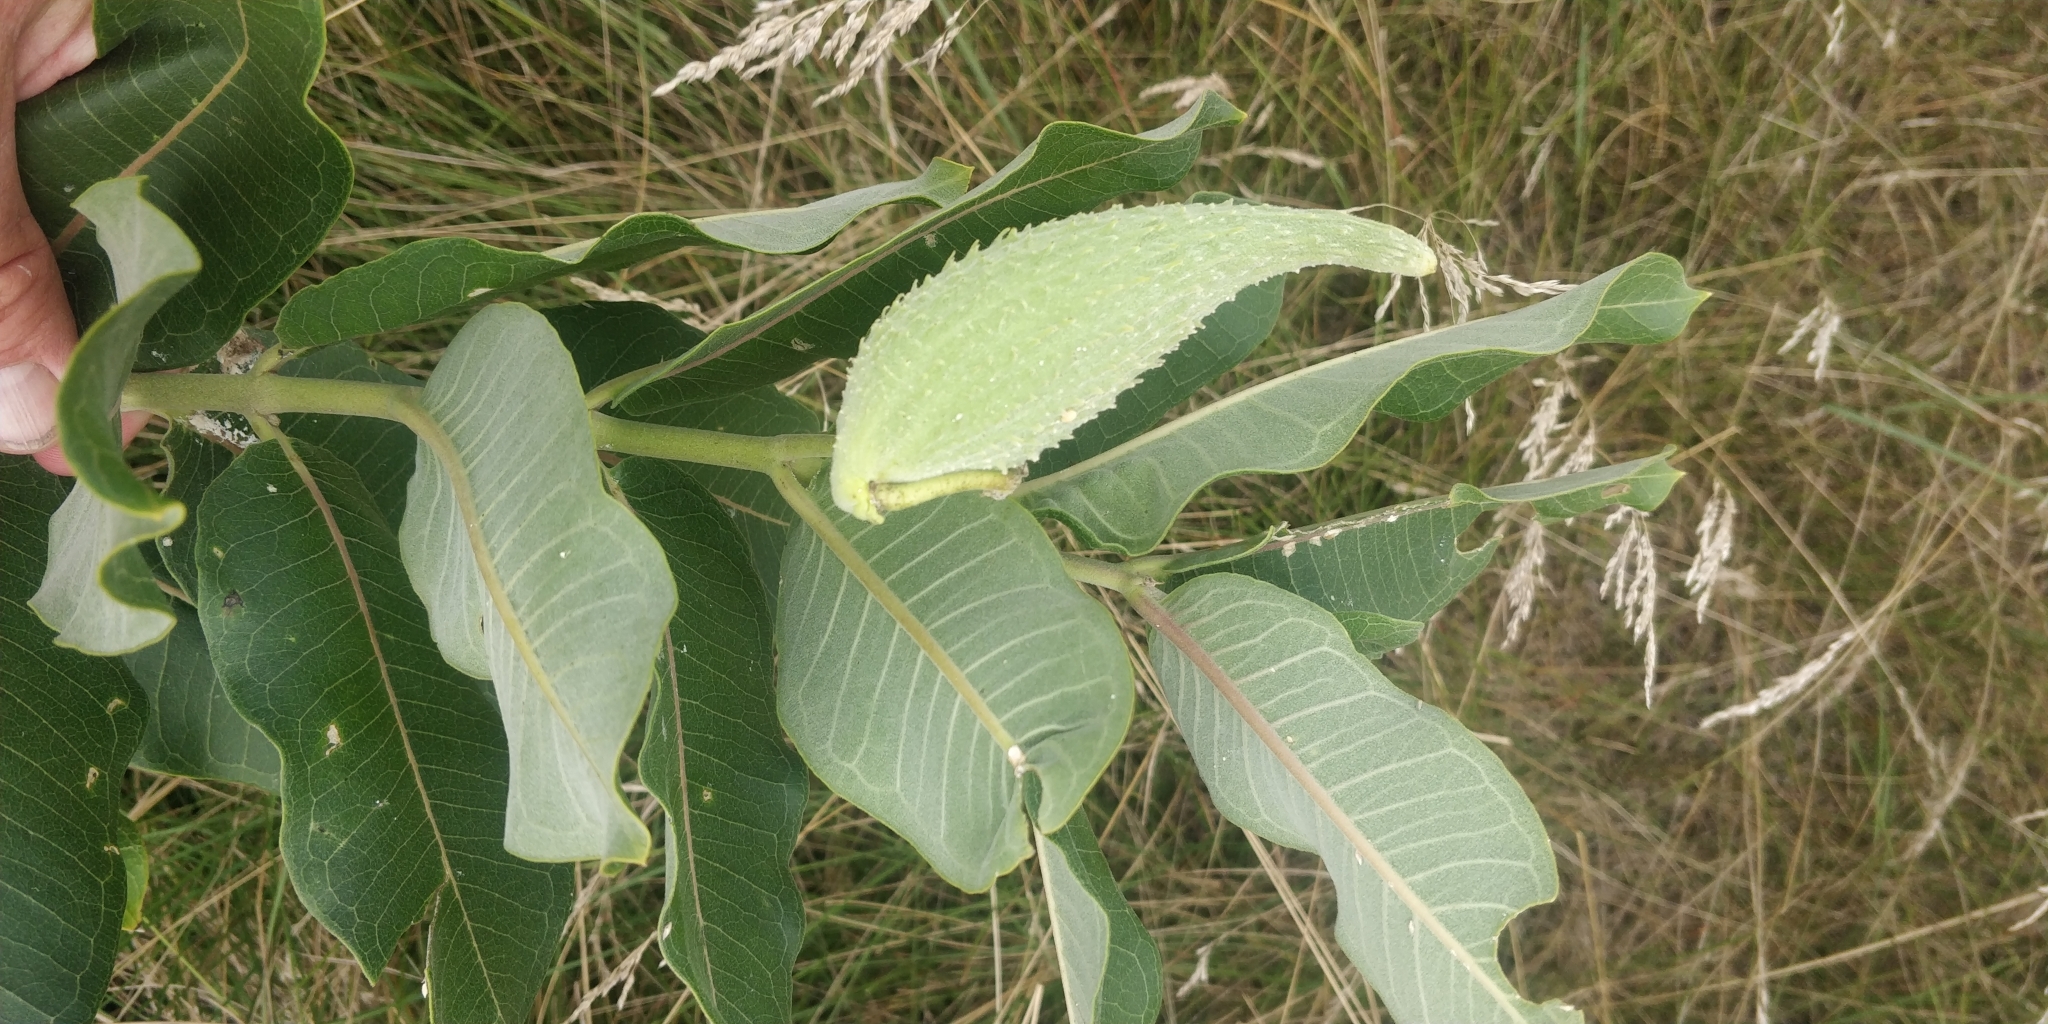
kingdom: Plantae
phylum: Tracheophyta
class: Magnoliopsida
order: Gentianales
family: Apocynaceae
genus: Asclepias
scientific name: Asclepias syriaca
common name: Common milkweed
